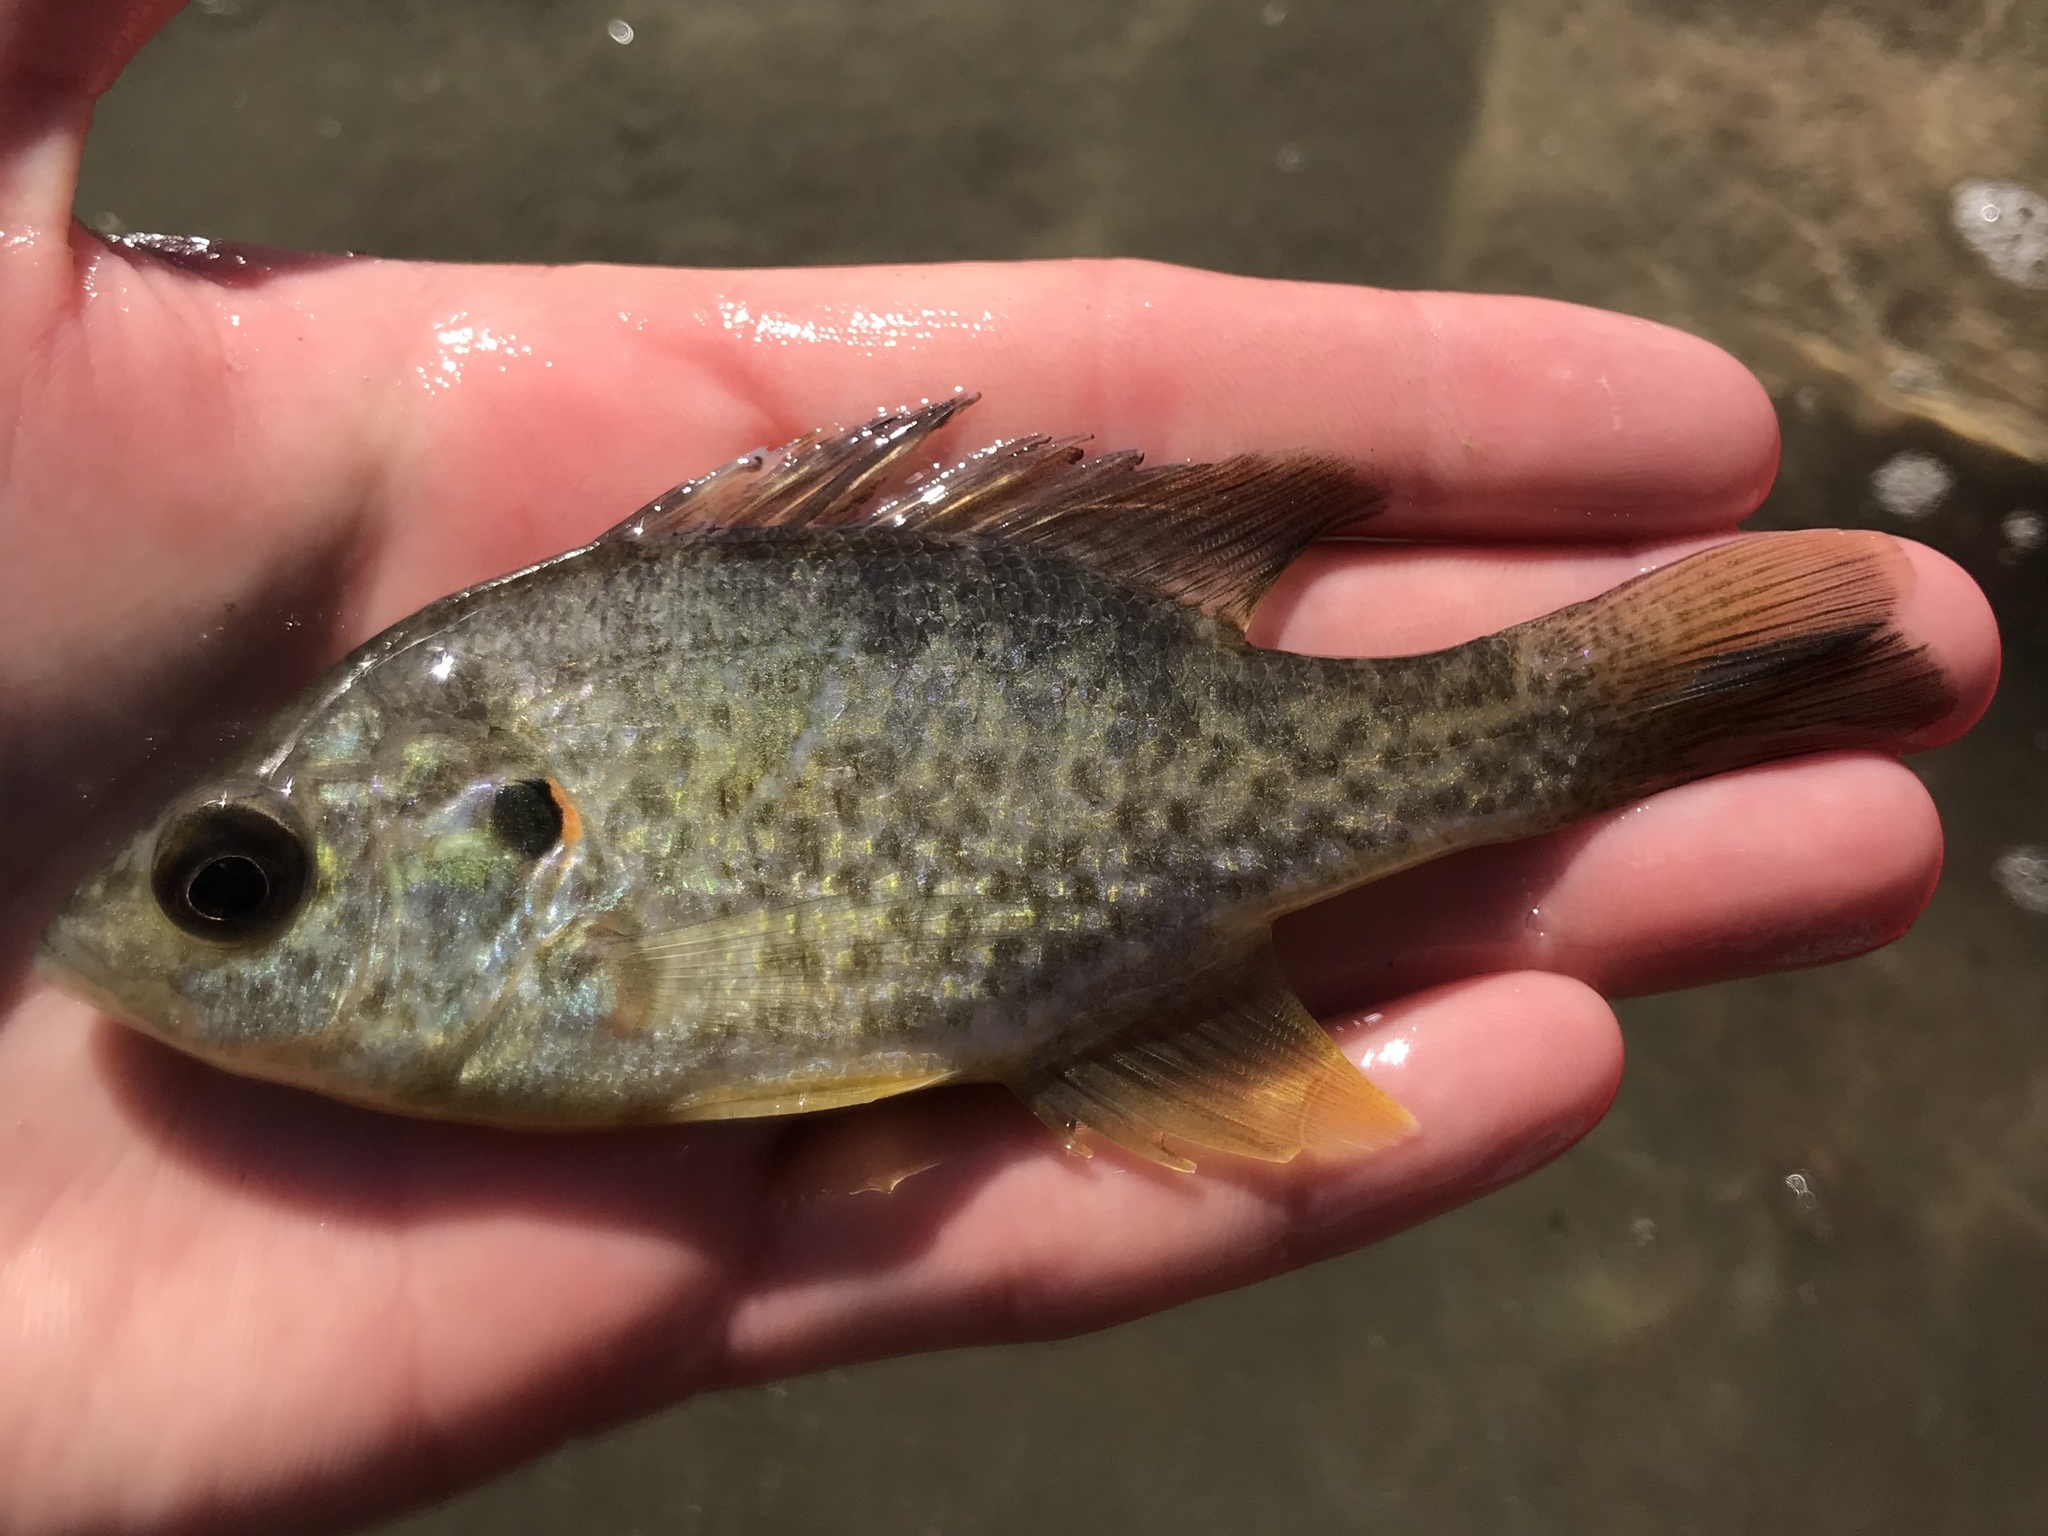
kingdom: Animalia
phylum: Chordata
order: Perciformes
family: Centrarchidae
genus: Lepomis
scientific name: Lepomis microlophus
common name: Redear sunfish
